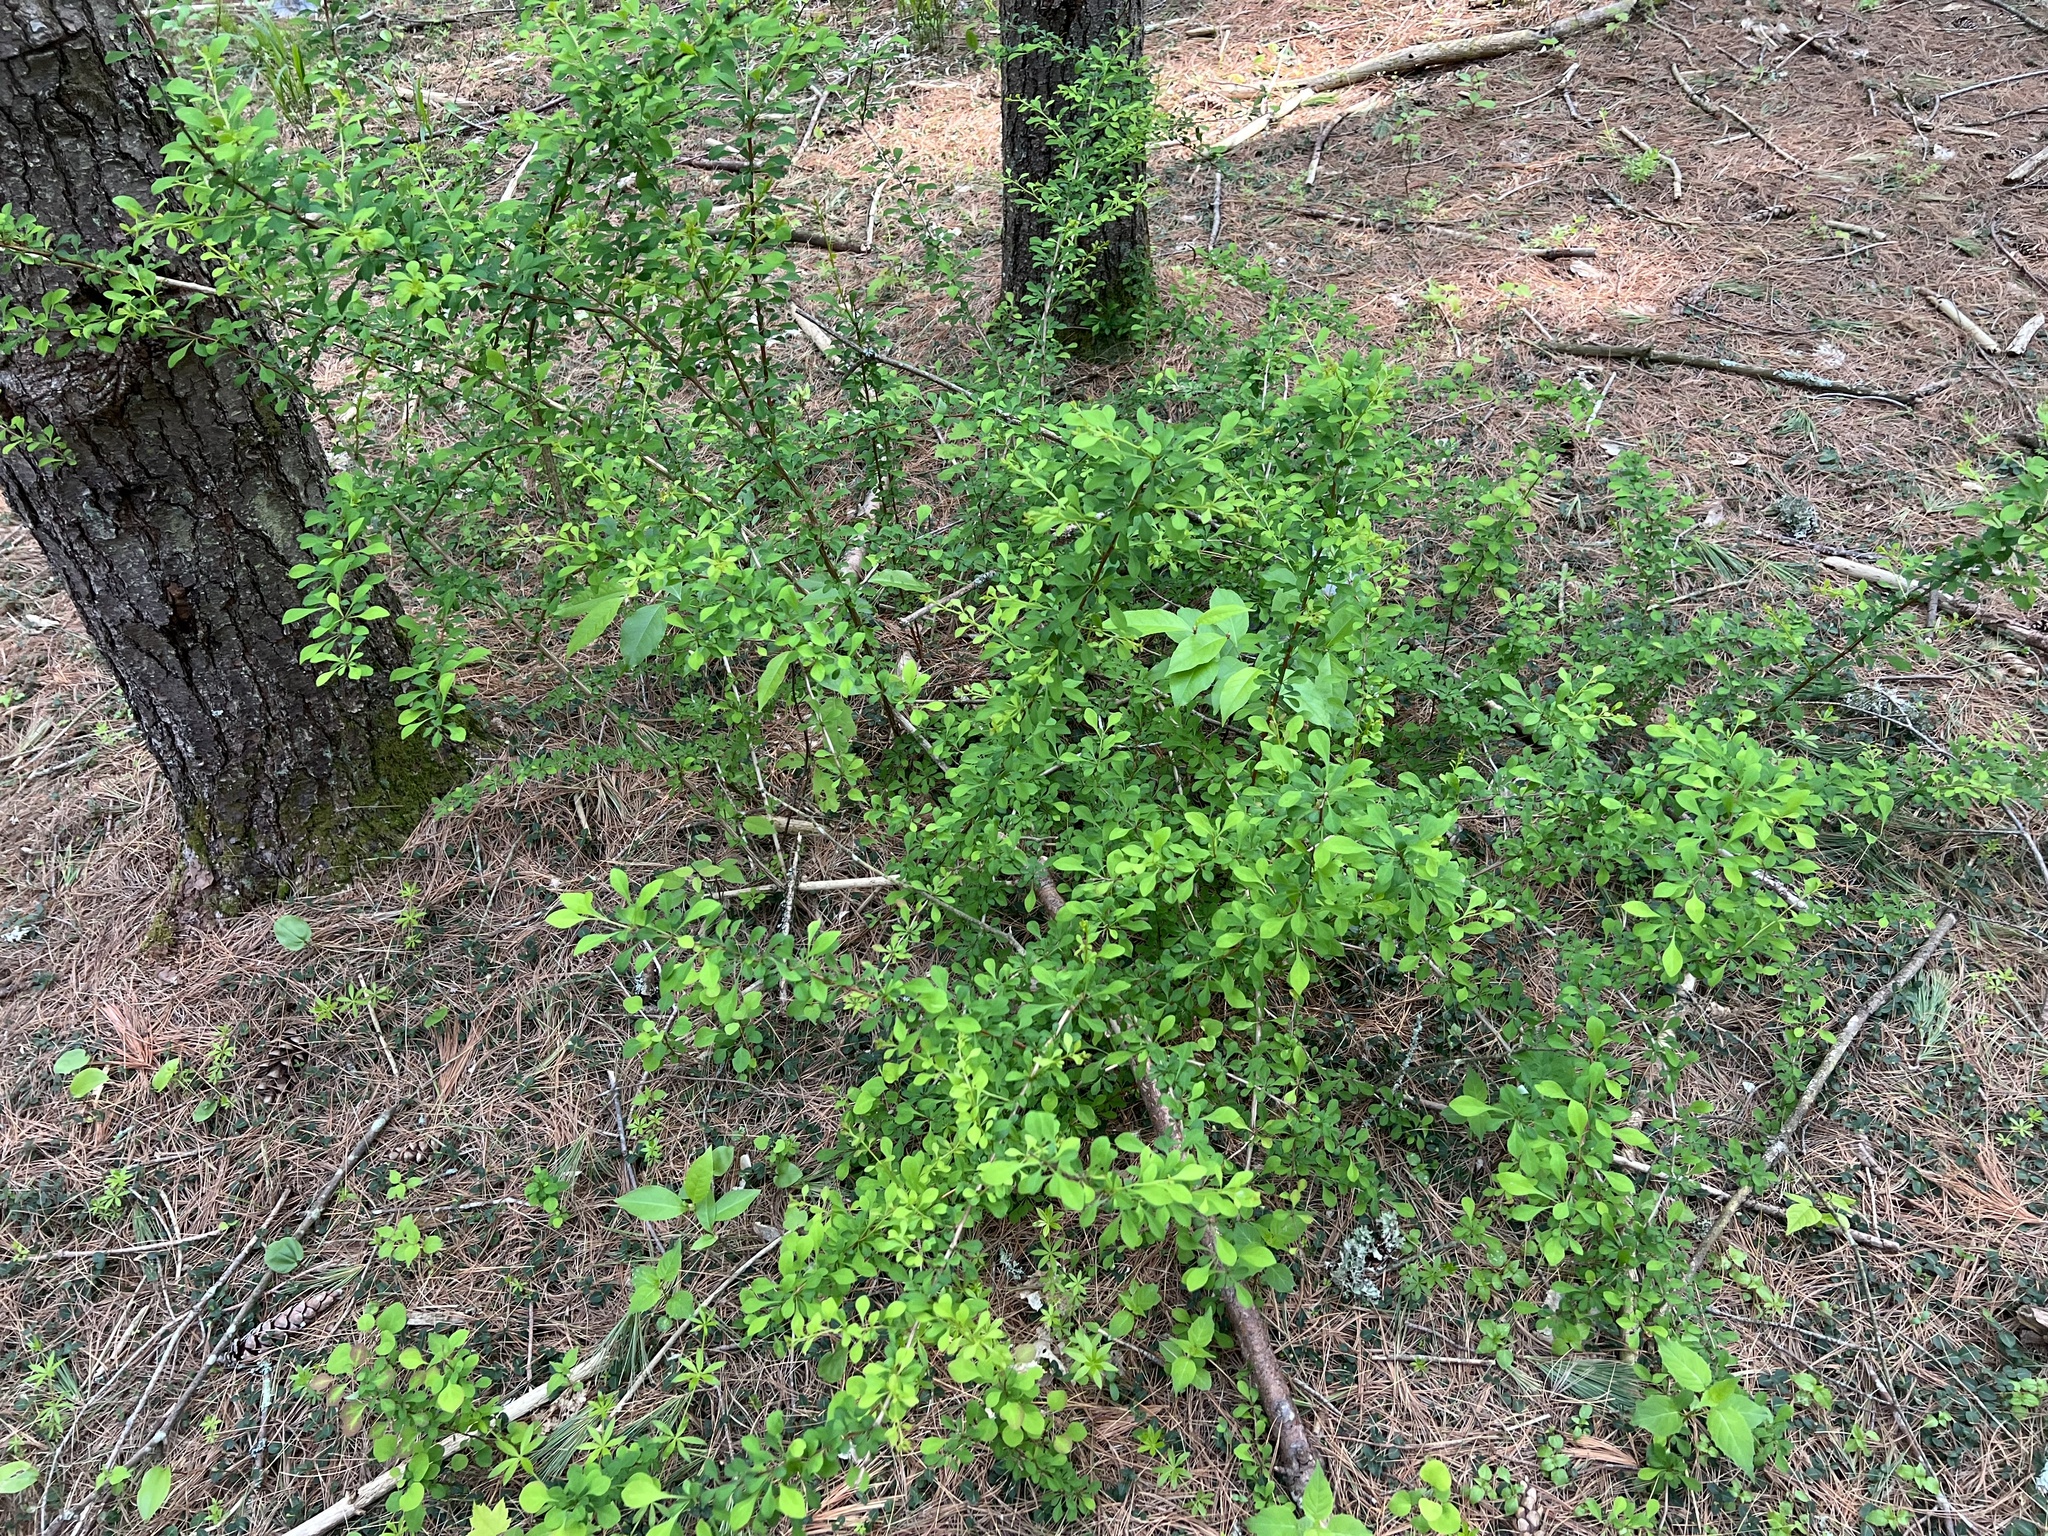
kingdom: Plantae
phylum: Tracheophyta
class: Magnoliopsida
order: Ranunculales
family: Berberidaceae
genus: Berberis
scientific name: Berberis thunbergii
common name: Japanese barberry
